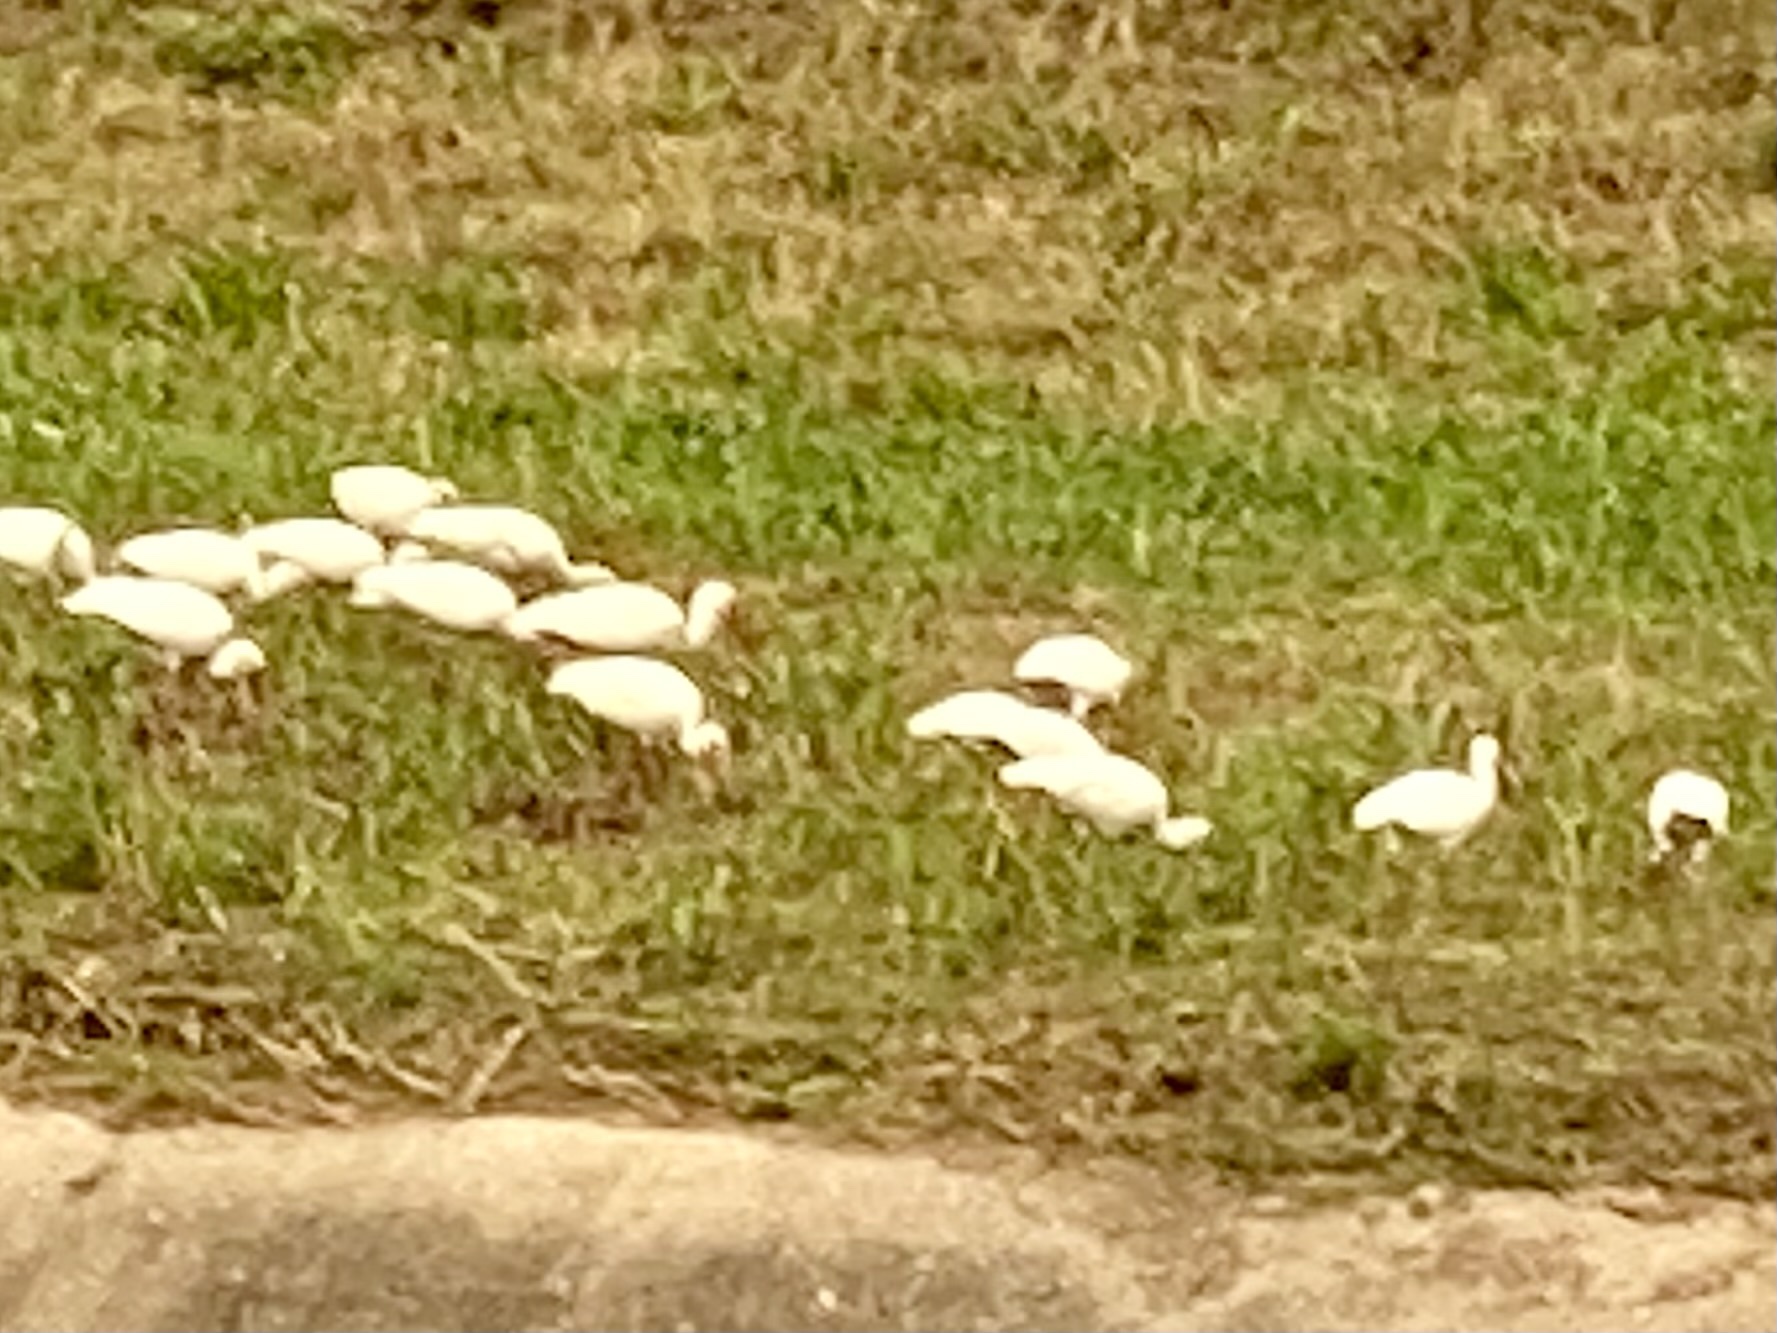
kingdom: Animalia
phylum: Chordata
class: Aves
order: Pelecaniformes
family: Threskiornithidae
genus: Eudocimus
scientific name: Eudocimus albus
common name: White ibis
